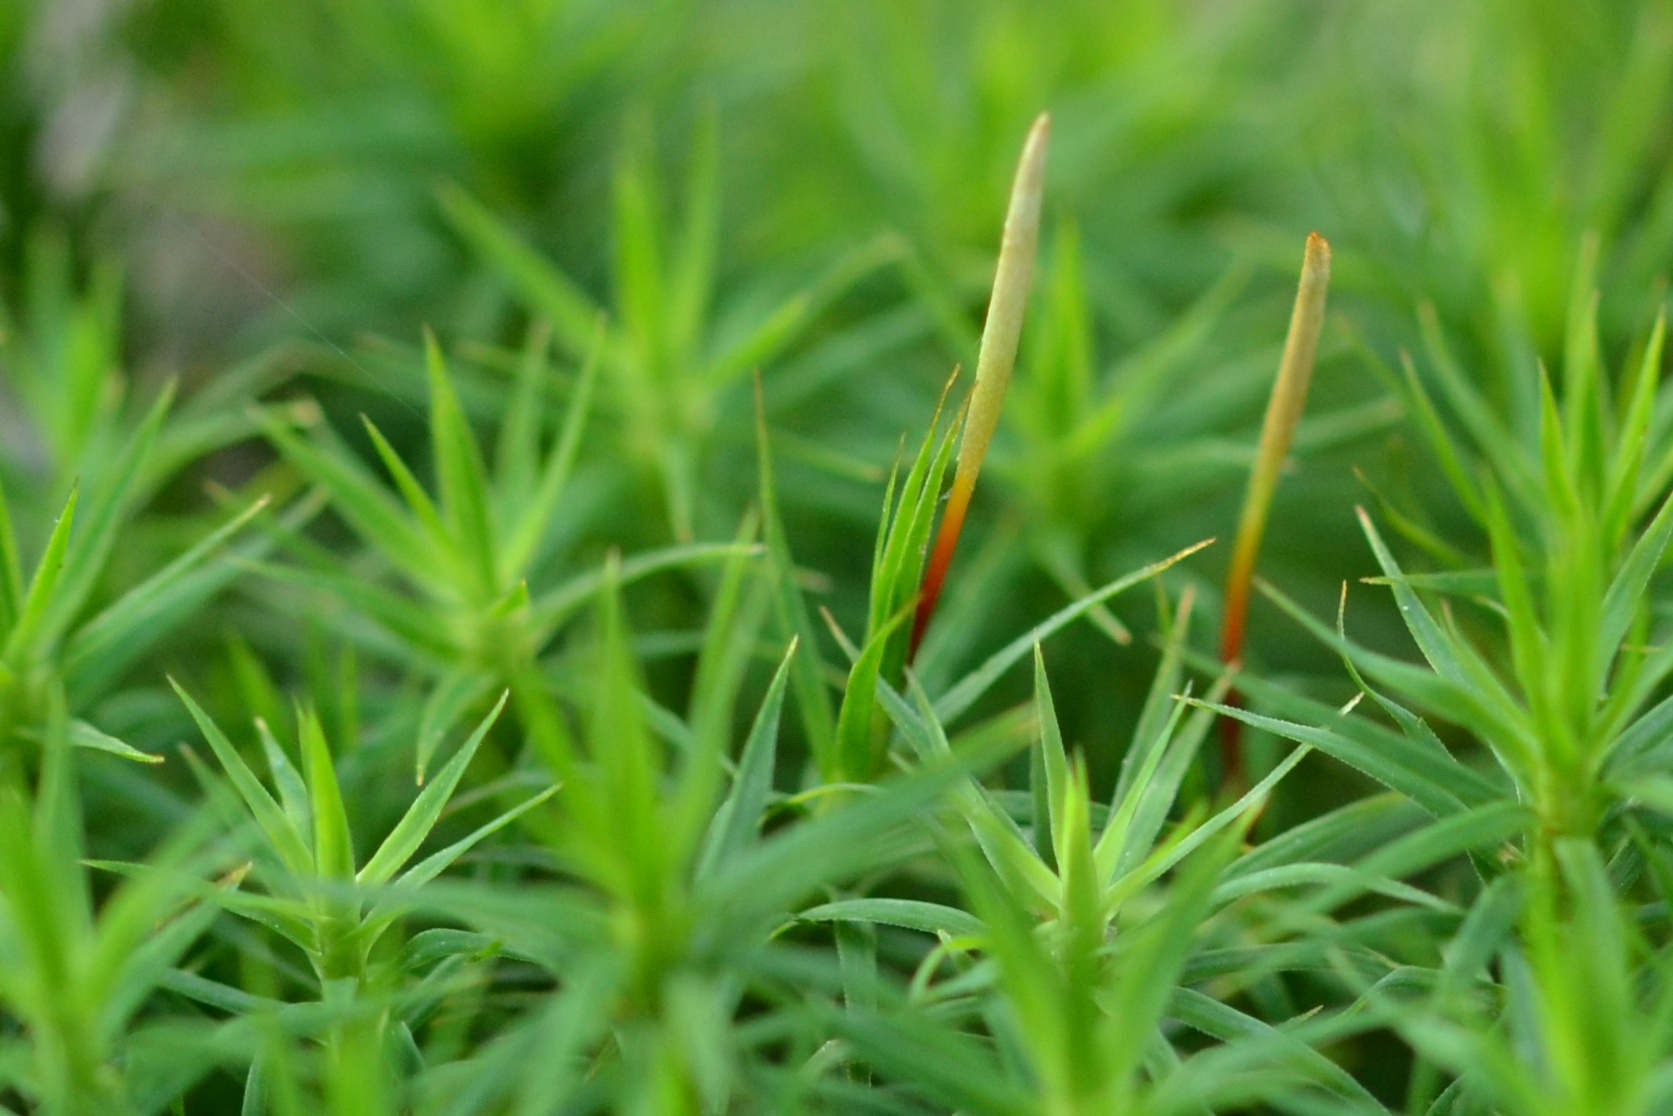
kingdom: Plantae
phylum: Bryophyta
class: Polytrichopsida
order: Polytrichales
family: Polytrichaceae
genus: Polytrichum
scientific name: Polytrichum formosum
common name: Bank haircap moss
